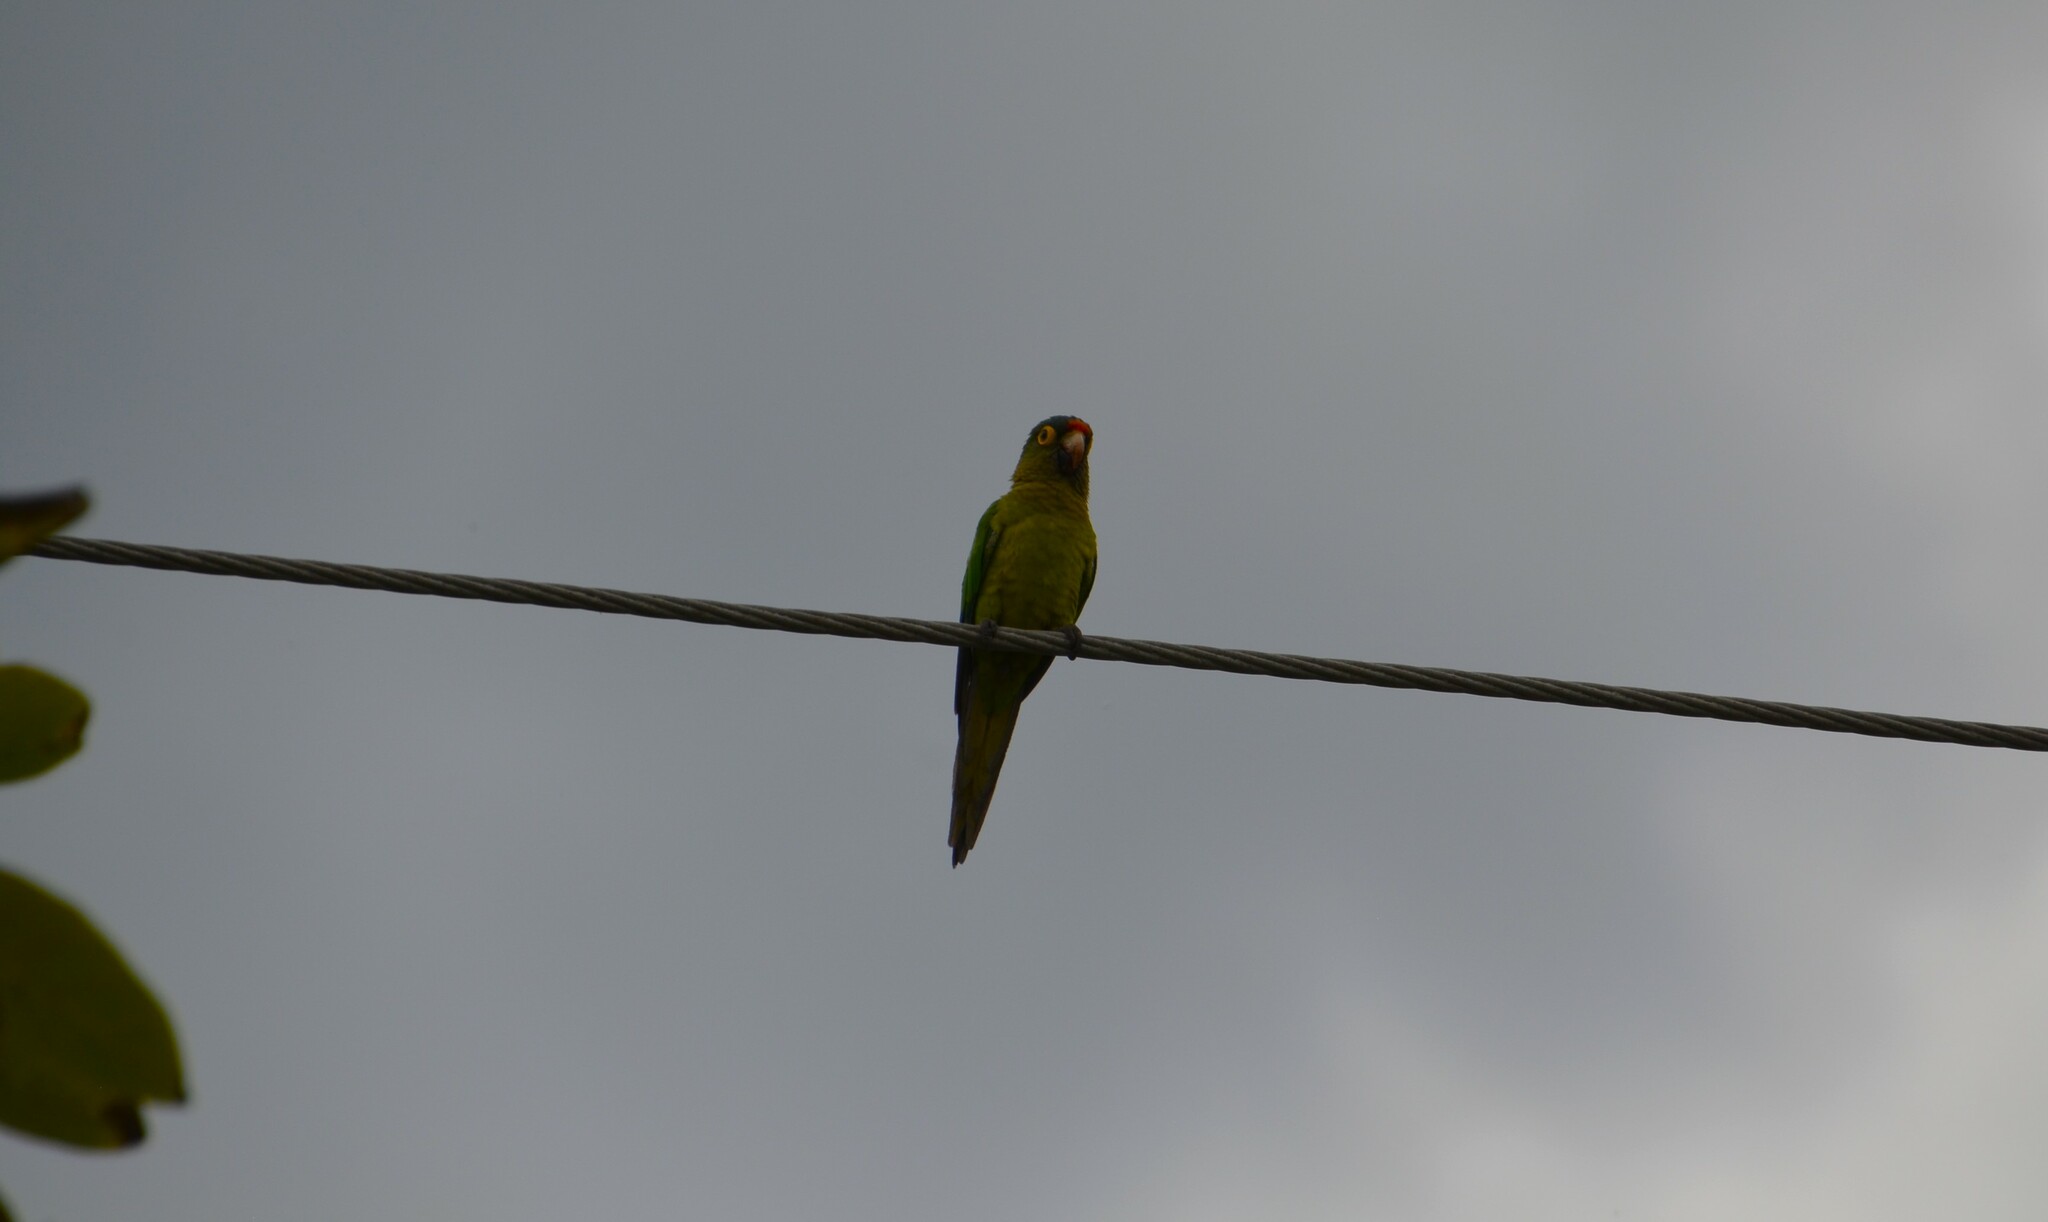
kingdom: Animalia
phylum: Chordata
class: Aves
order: Psittaciformes
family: Psittacidae
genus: Aratinga
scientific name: Aratinga canicularis
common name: Orange-fronted parakeet
